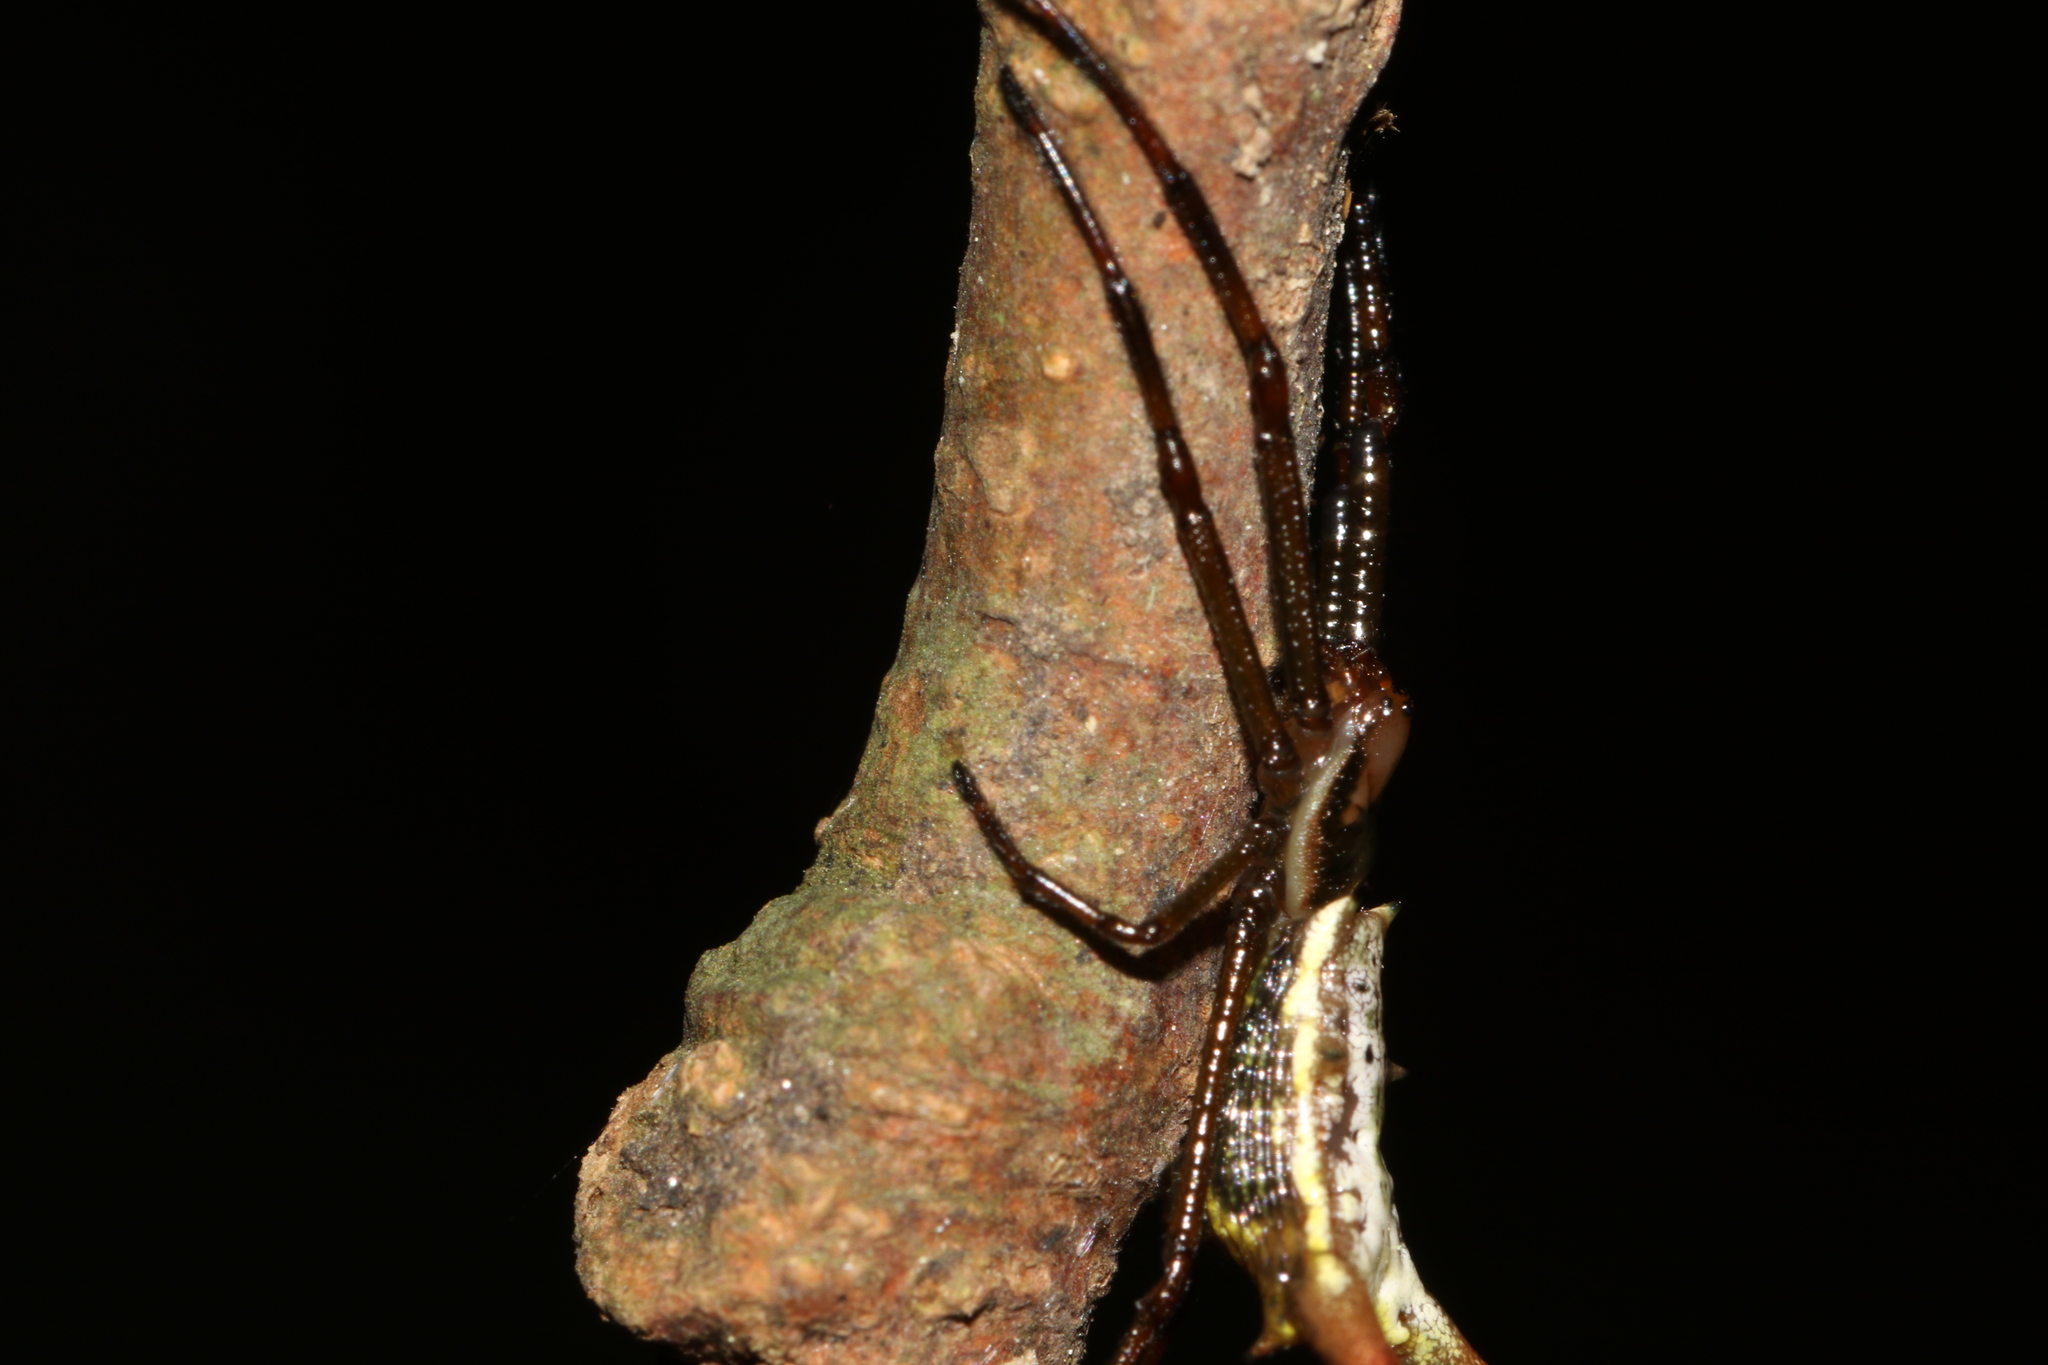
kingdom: Animalia
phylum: Arthropoda
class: Arachnida
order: Araneae
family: Araneidae
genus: Micrathena
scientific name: Micrathena sanctispiritus
